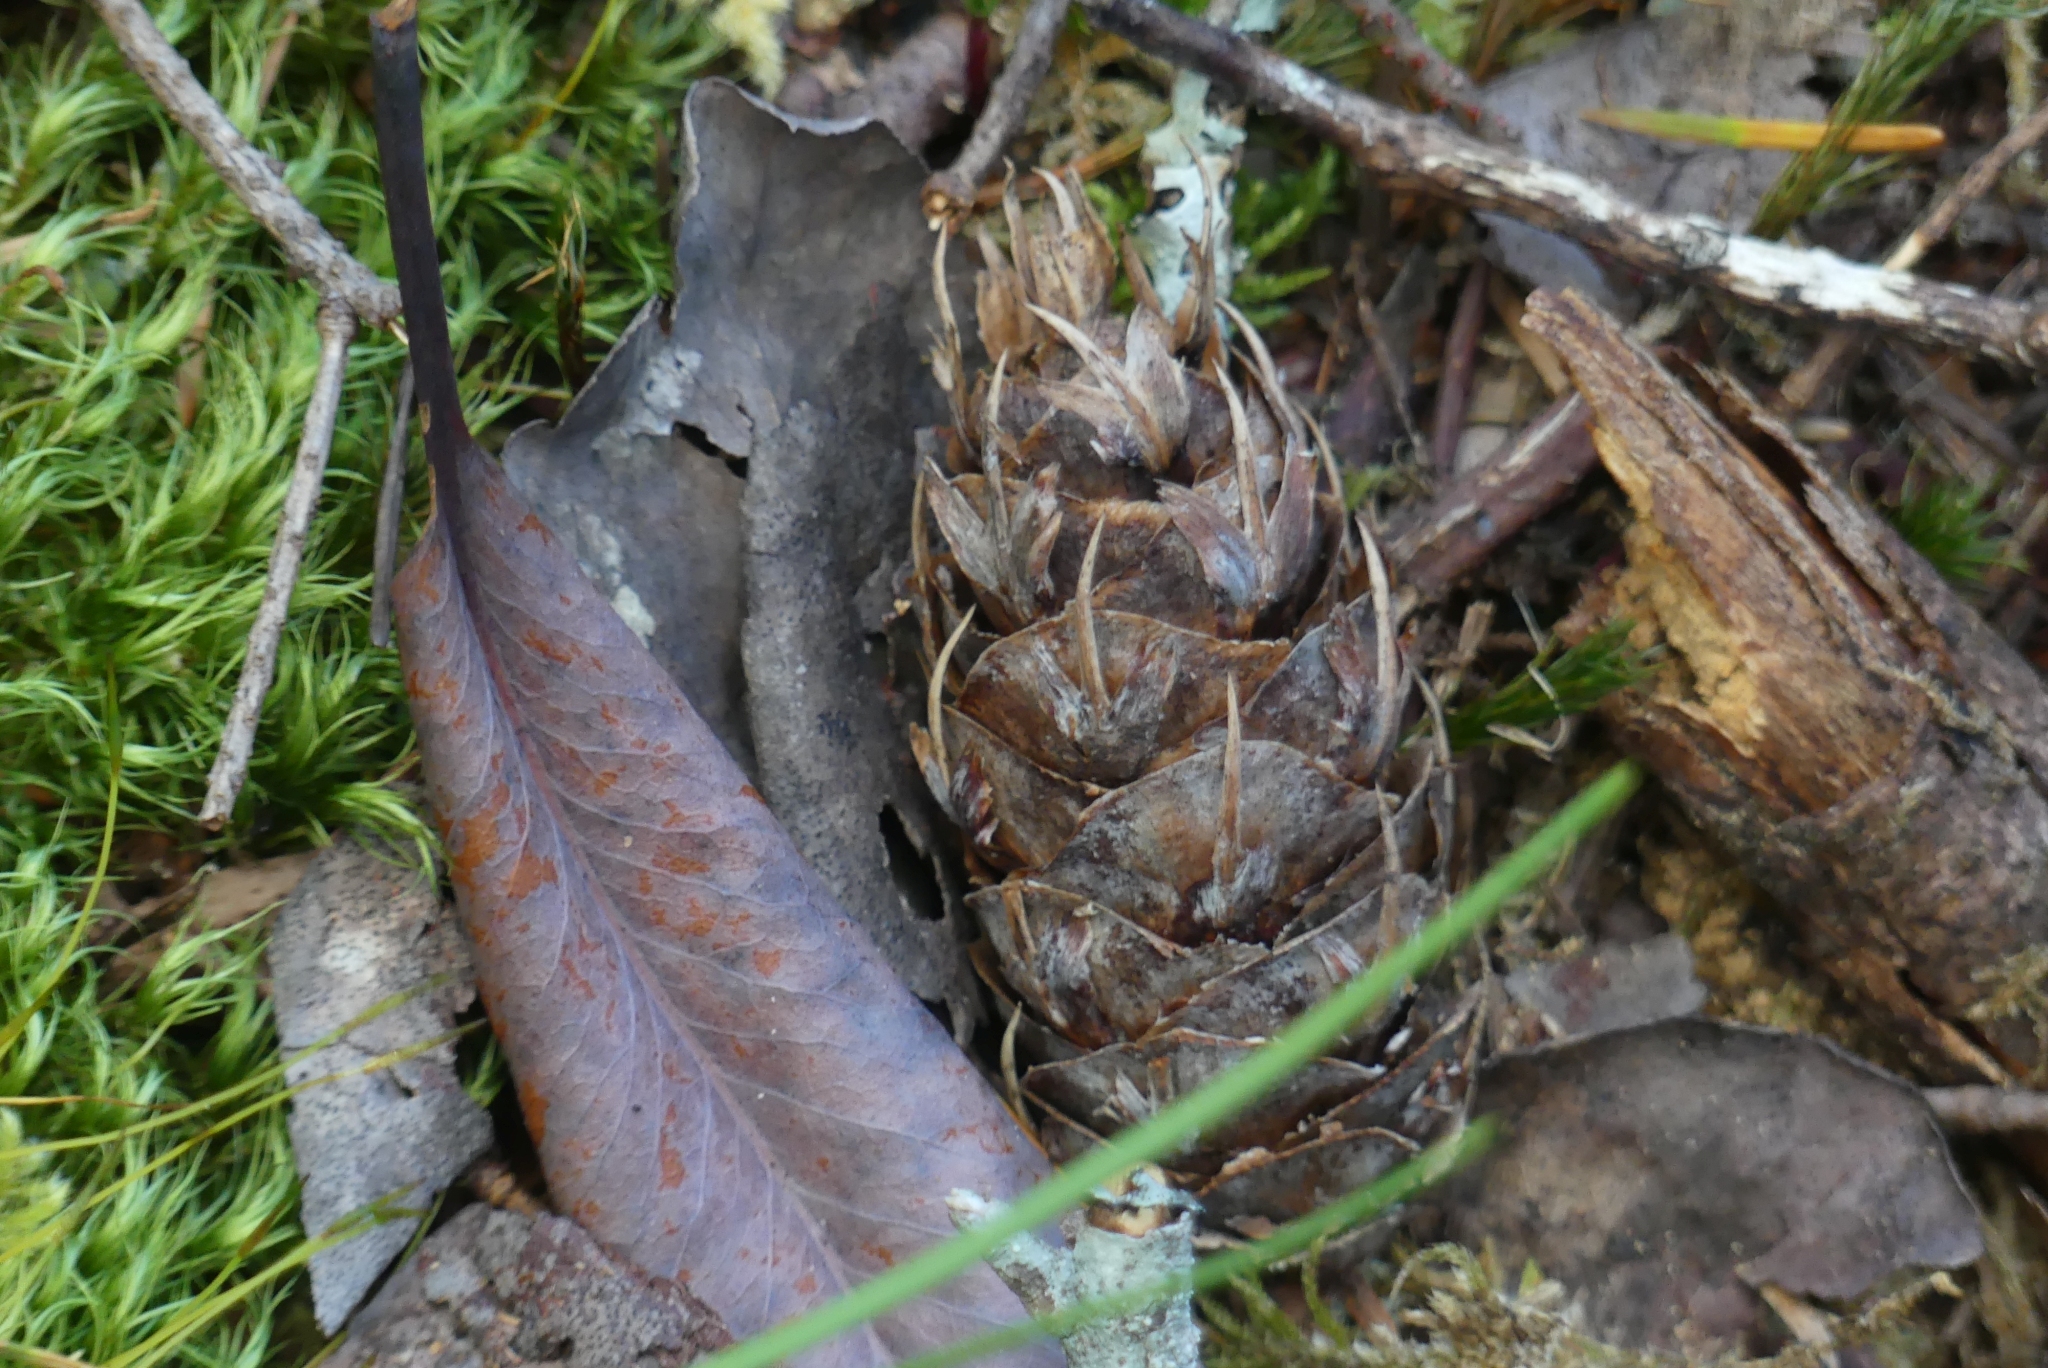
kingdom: Plantae
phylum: Tracheophyta
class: Pinopsida
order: Pinales
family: Pinaceae
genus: Pseudotsuga
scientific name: Pseudotsuga menziesii
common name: Douglas fir
